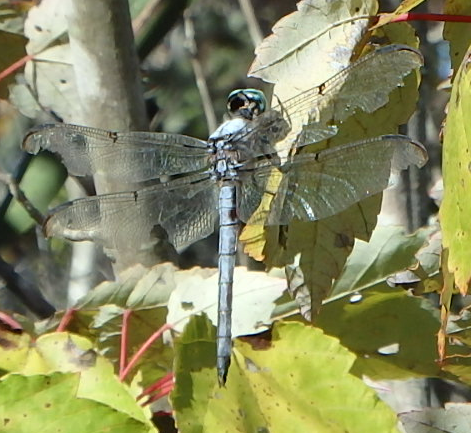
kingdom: Animalia
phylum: Arthropoda
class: Insecta
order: Odonata
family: Libellulidae
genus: Libellula
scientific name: Libellula vibrans
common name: Great blue skimmer
